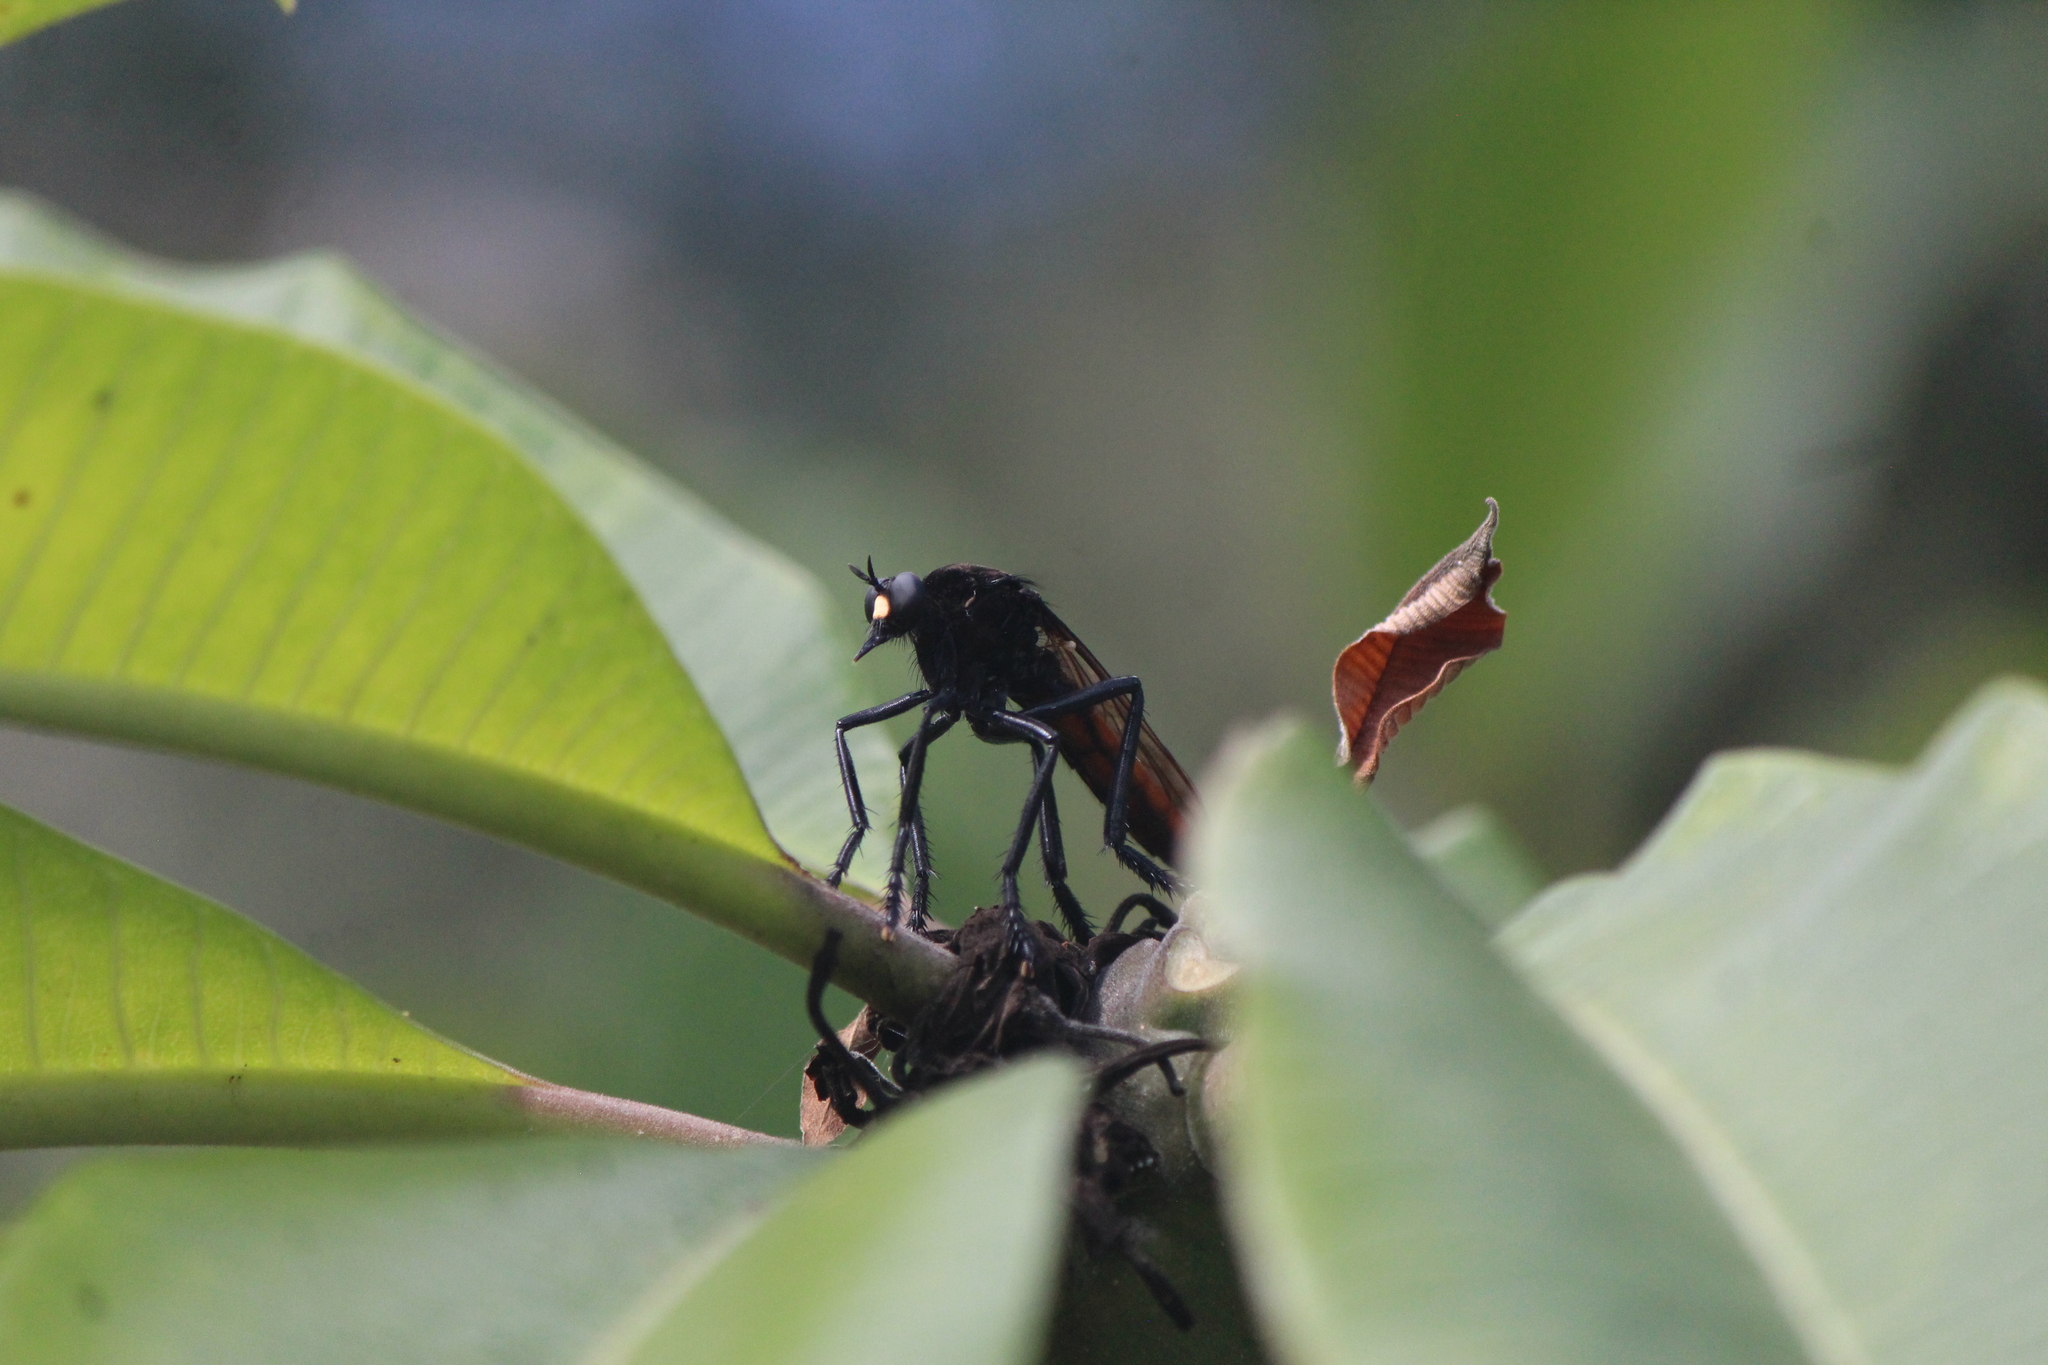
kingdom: Animalia
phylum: Arthropoda
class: Insecta
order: Diptera
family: Asilidae
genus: Archilestris
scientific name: Archilestris magnificus
